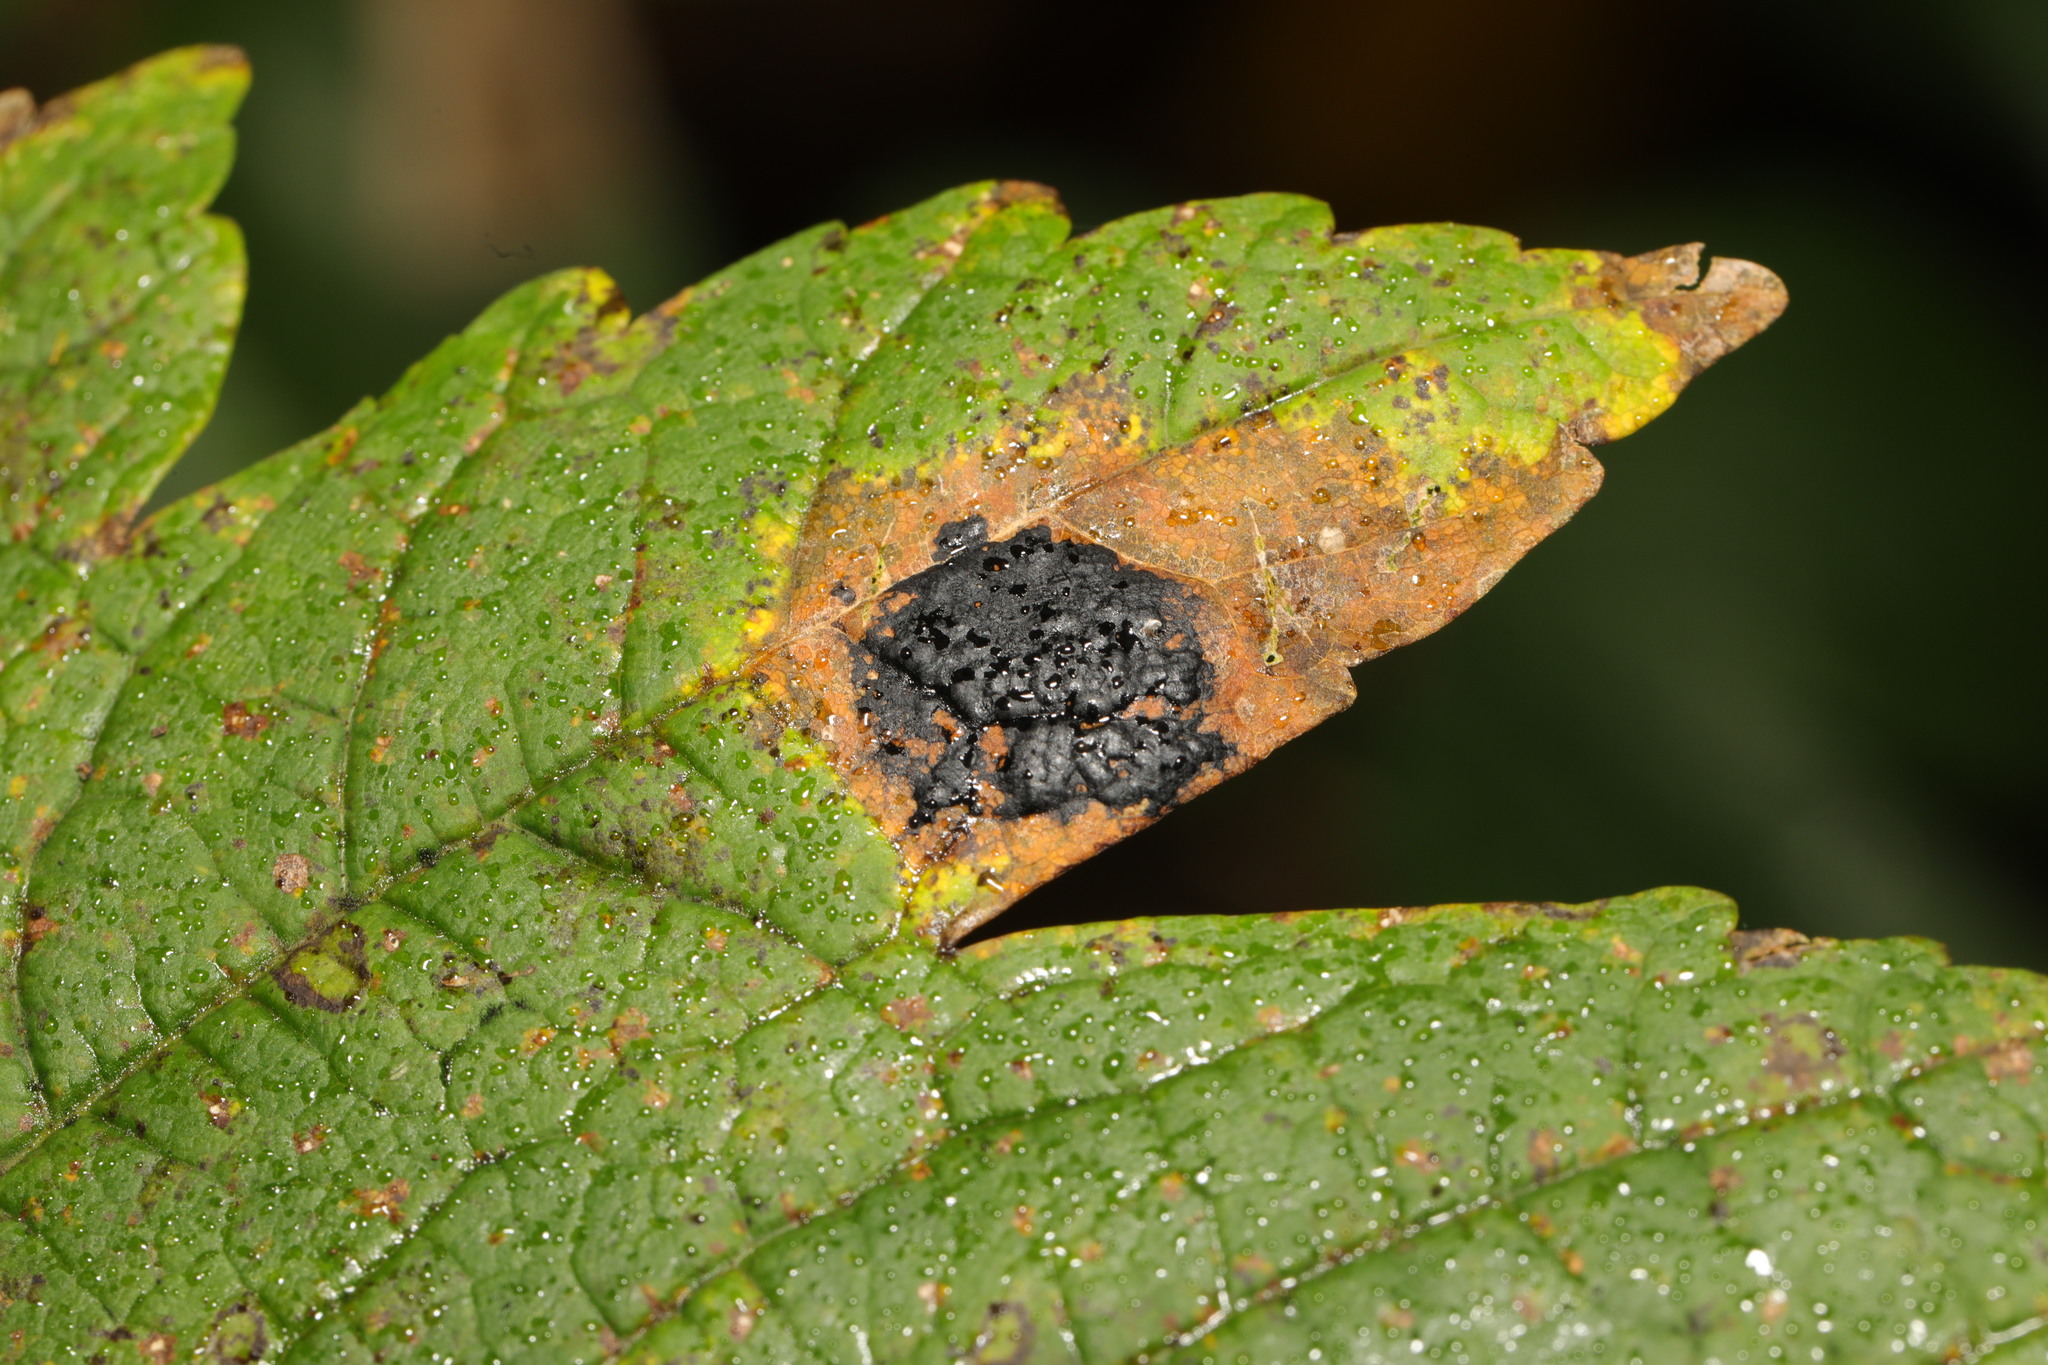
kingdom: Fungi
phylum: Ascomycota
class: Leotiomycetes
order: Rhytismatales
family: Rhytismataceae
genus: Rhytisma
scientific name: Rhytisma acerinum
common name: European tar spot
